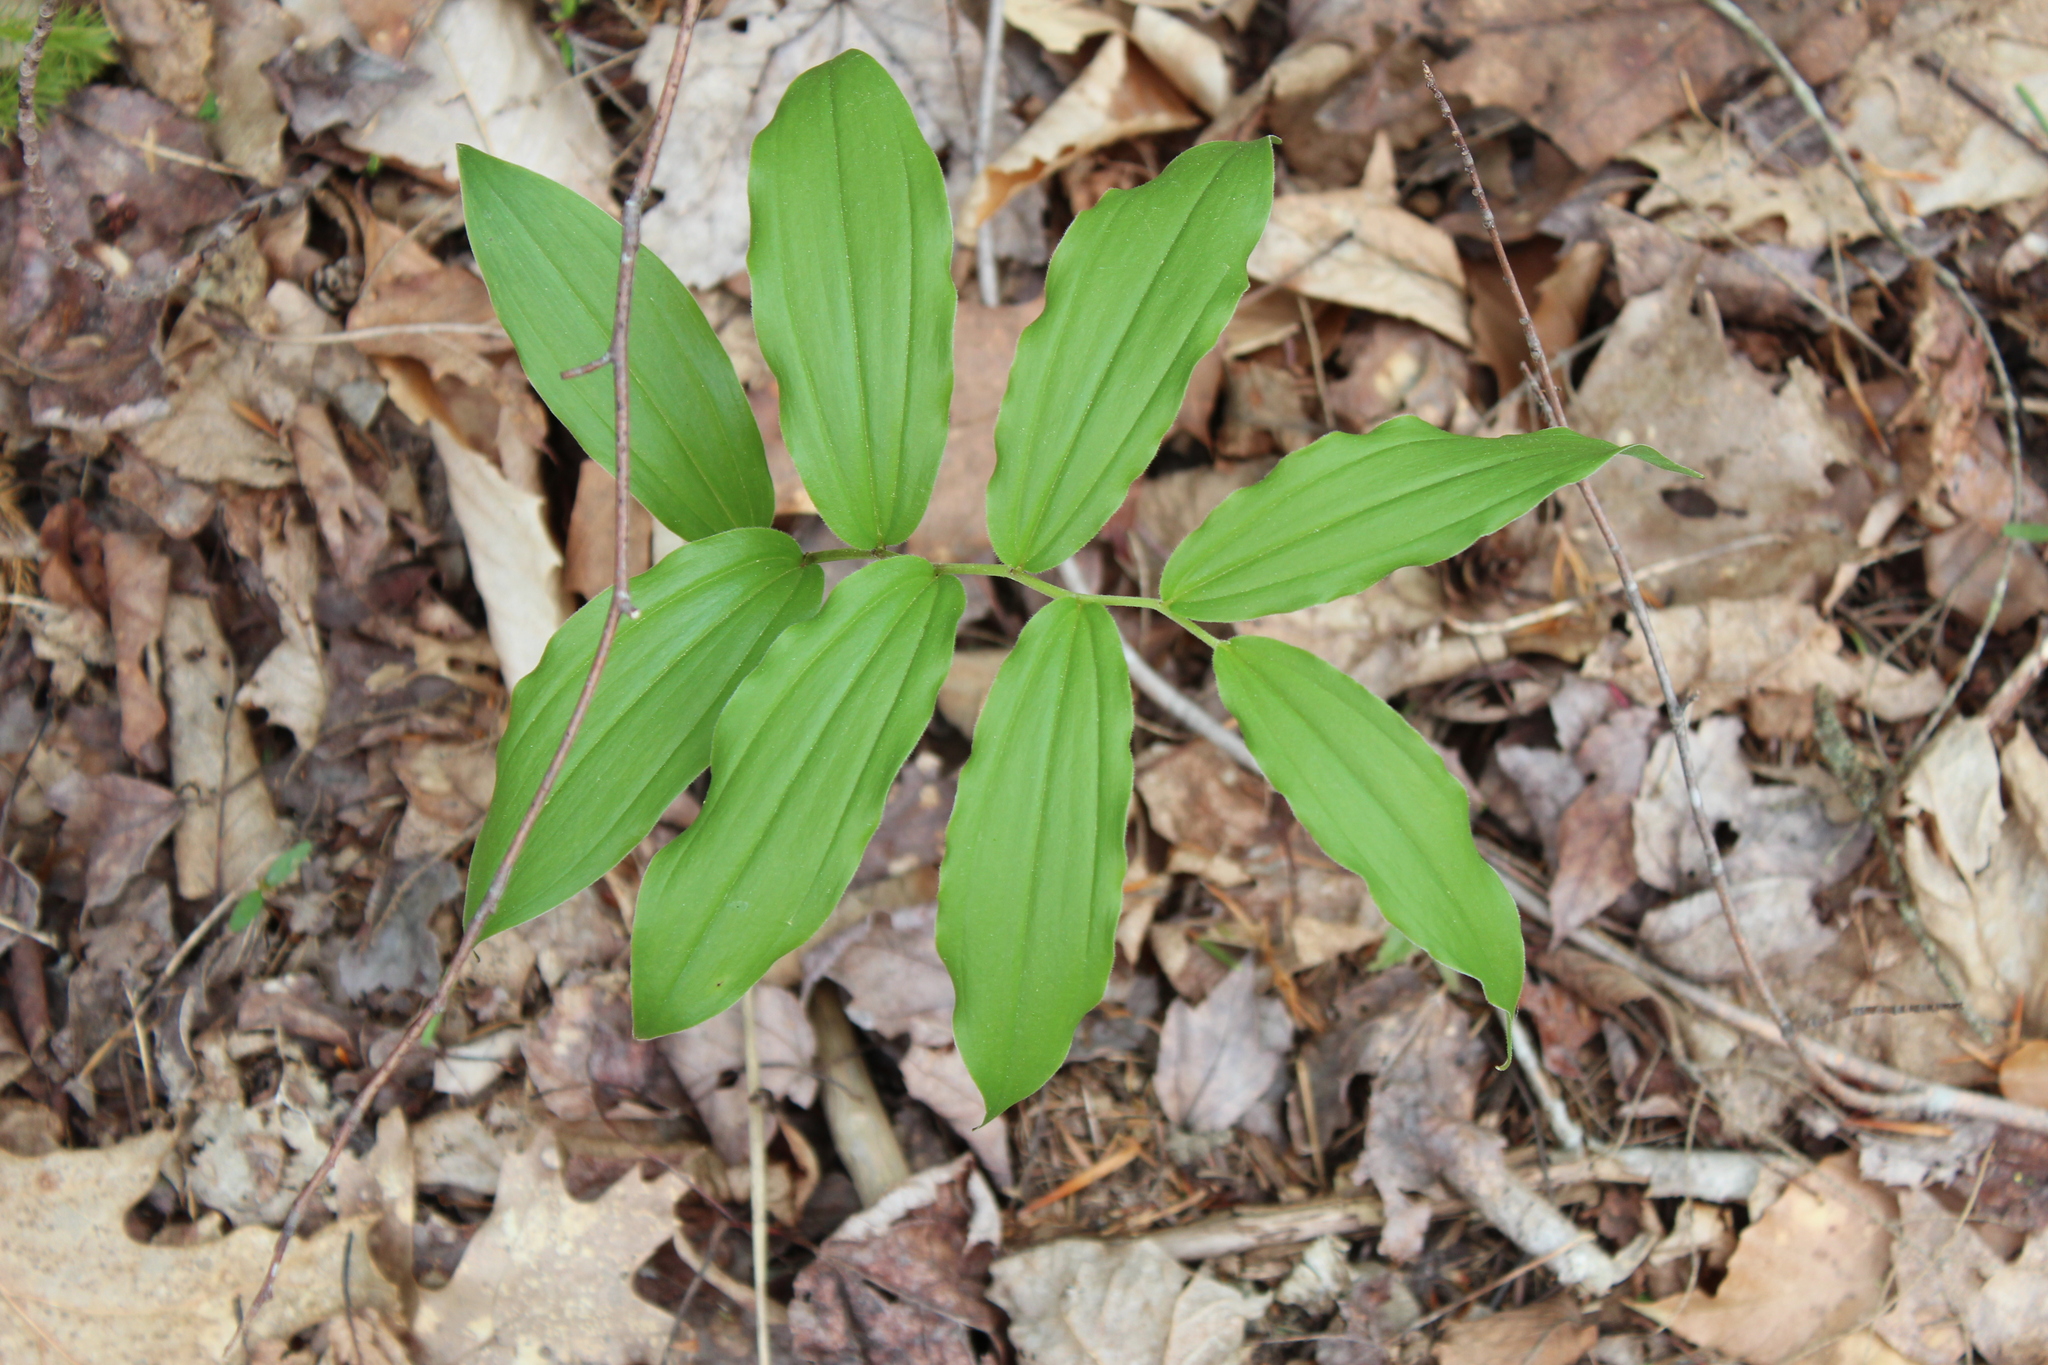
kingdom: Plantae
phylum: Tracheophyta
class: Liliopsida
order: Asparagales
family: Asparagaceae
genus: Maianthemum
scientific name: Maianthemum racemosum
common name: False spikenard
